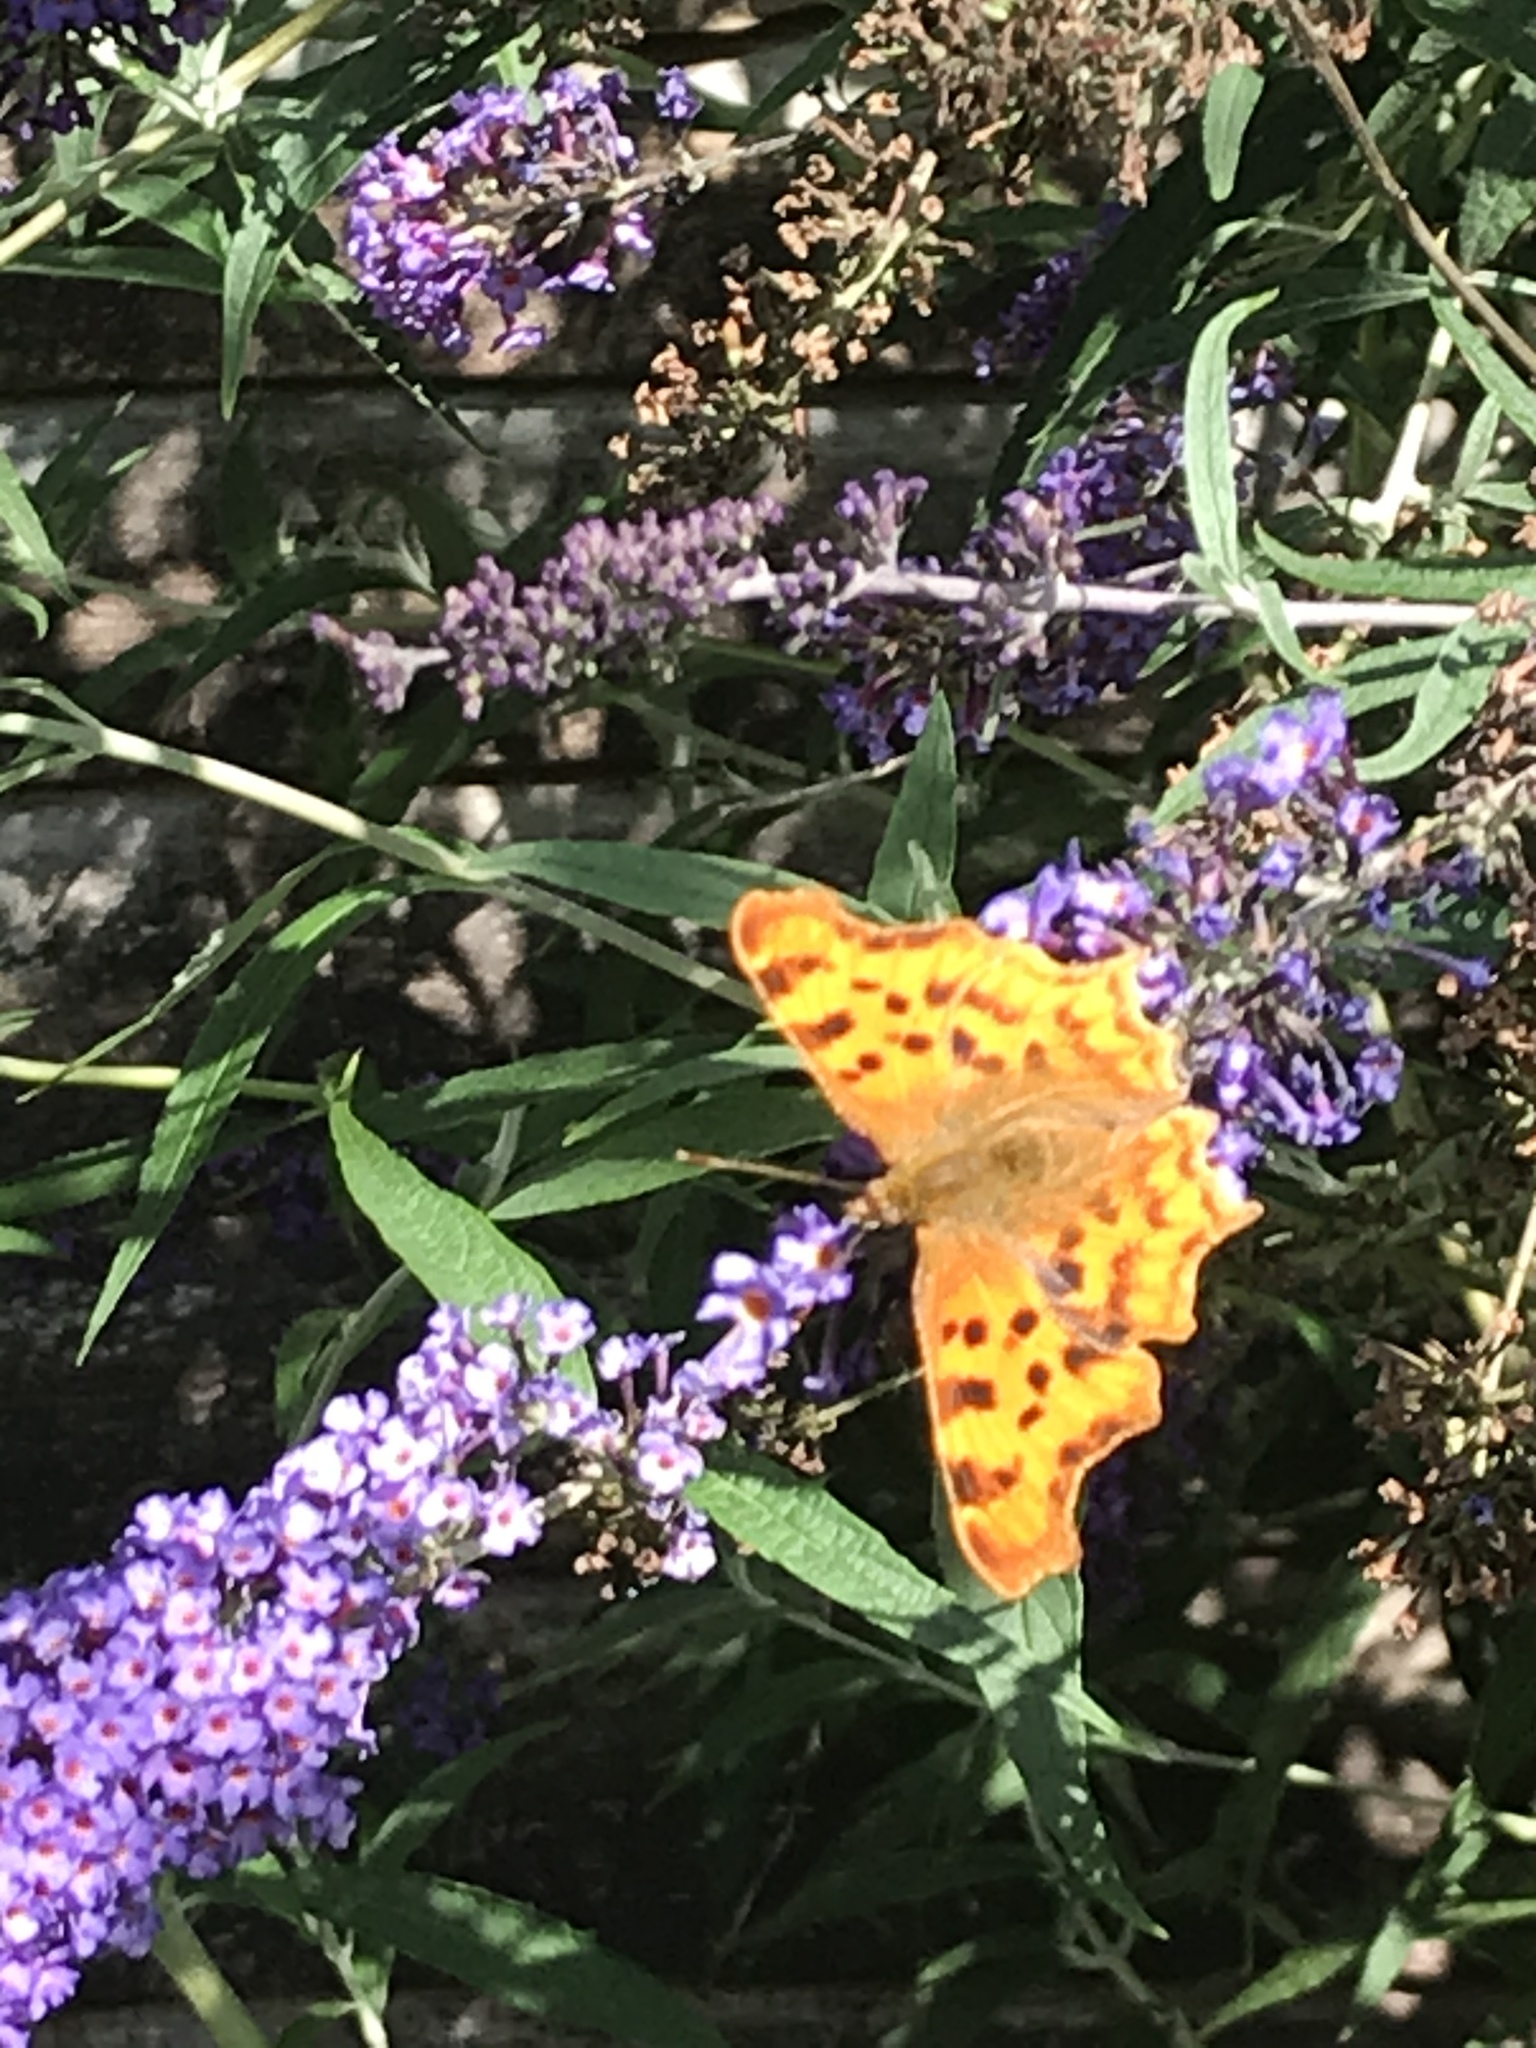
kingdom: Animalia
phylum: Arthropoda
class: Insecta
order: Lepidoptera
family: Nymphalidae
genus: Polygonia
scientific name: Polygonia c-album
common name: Comma
